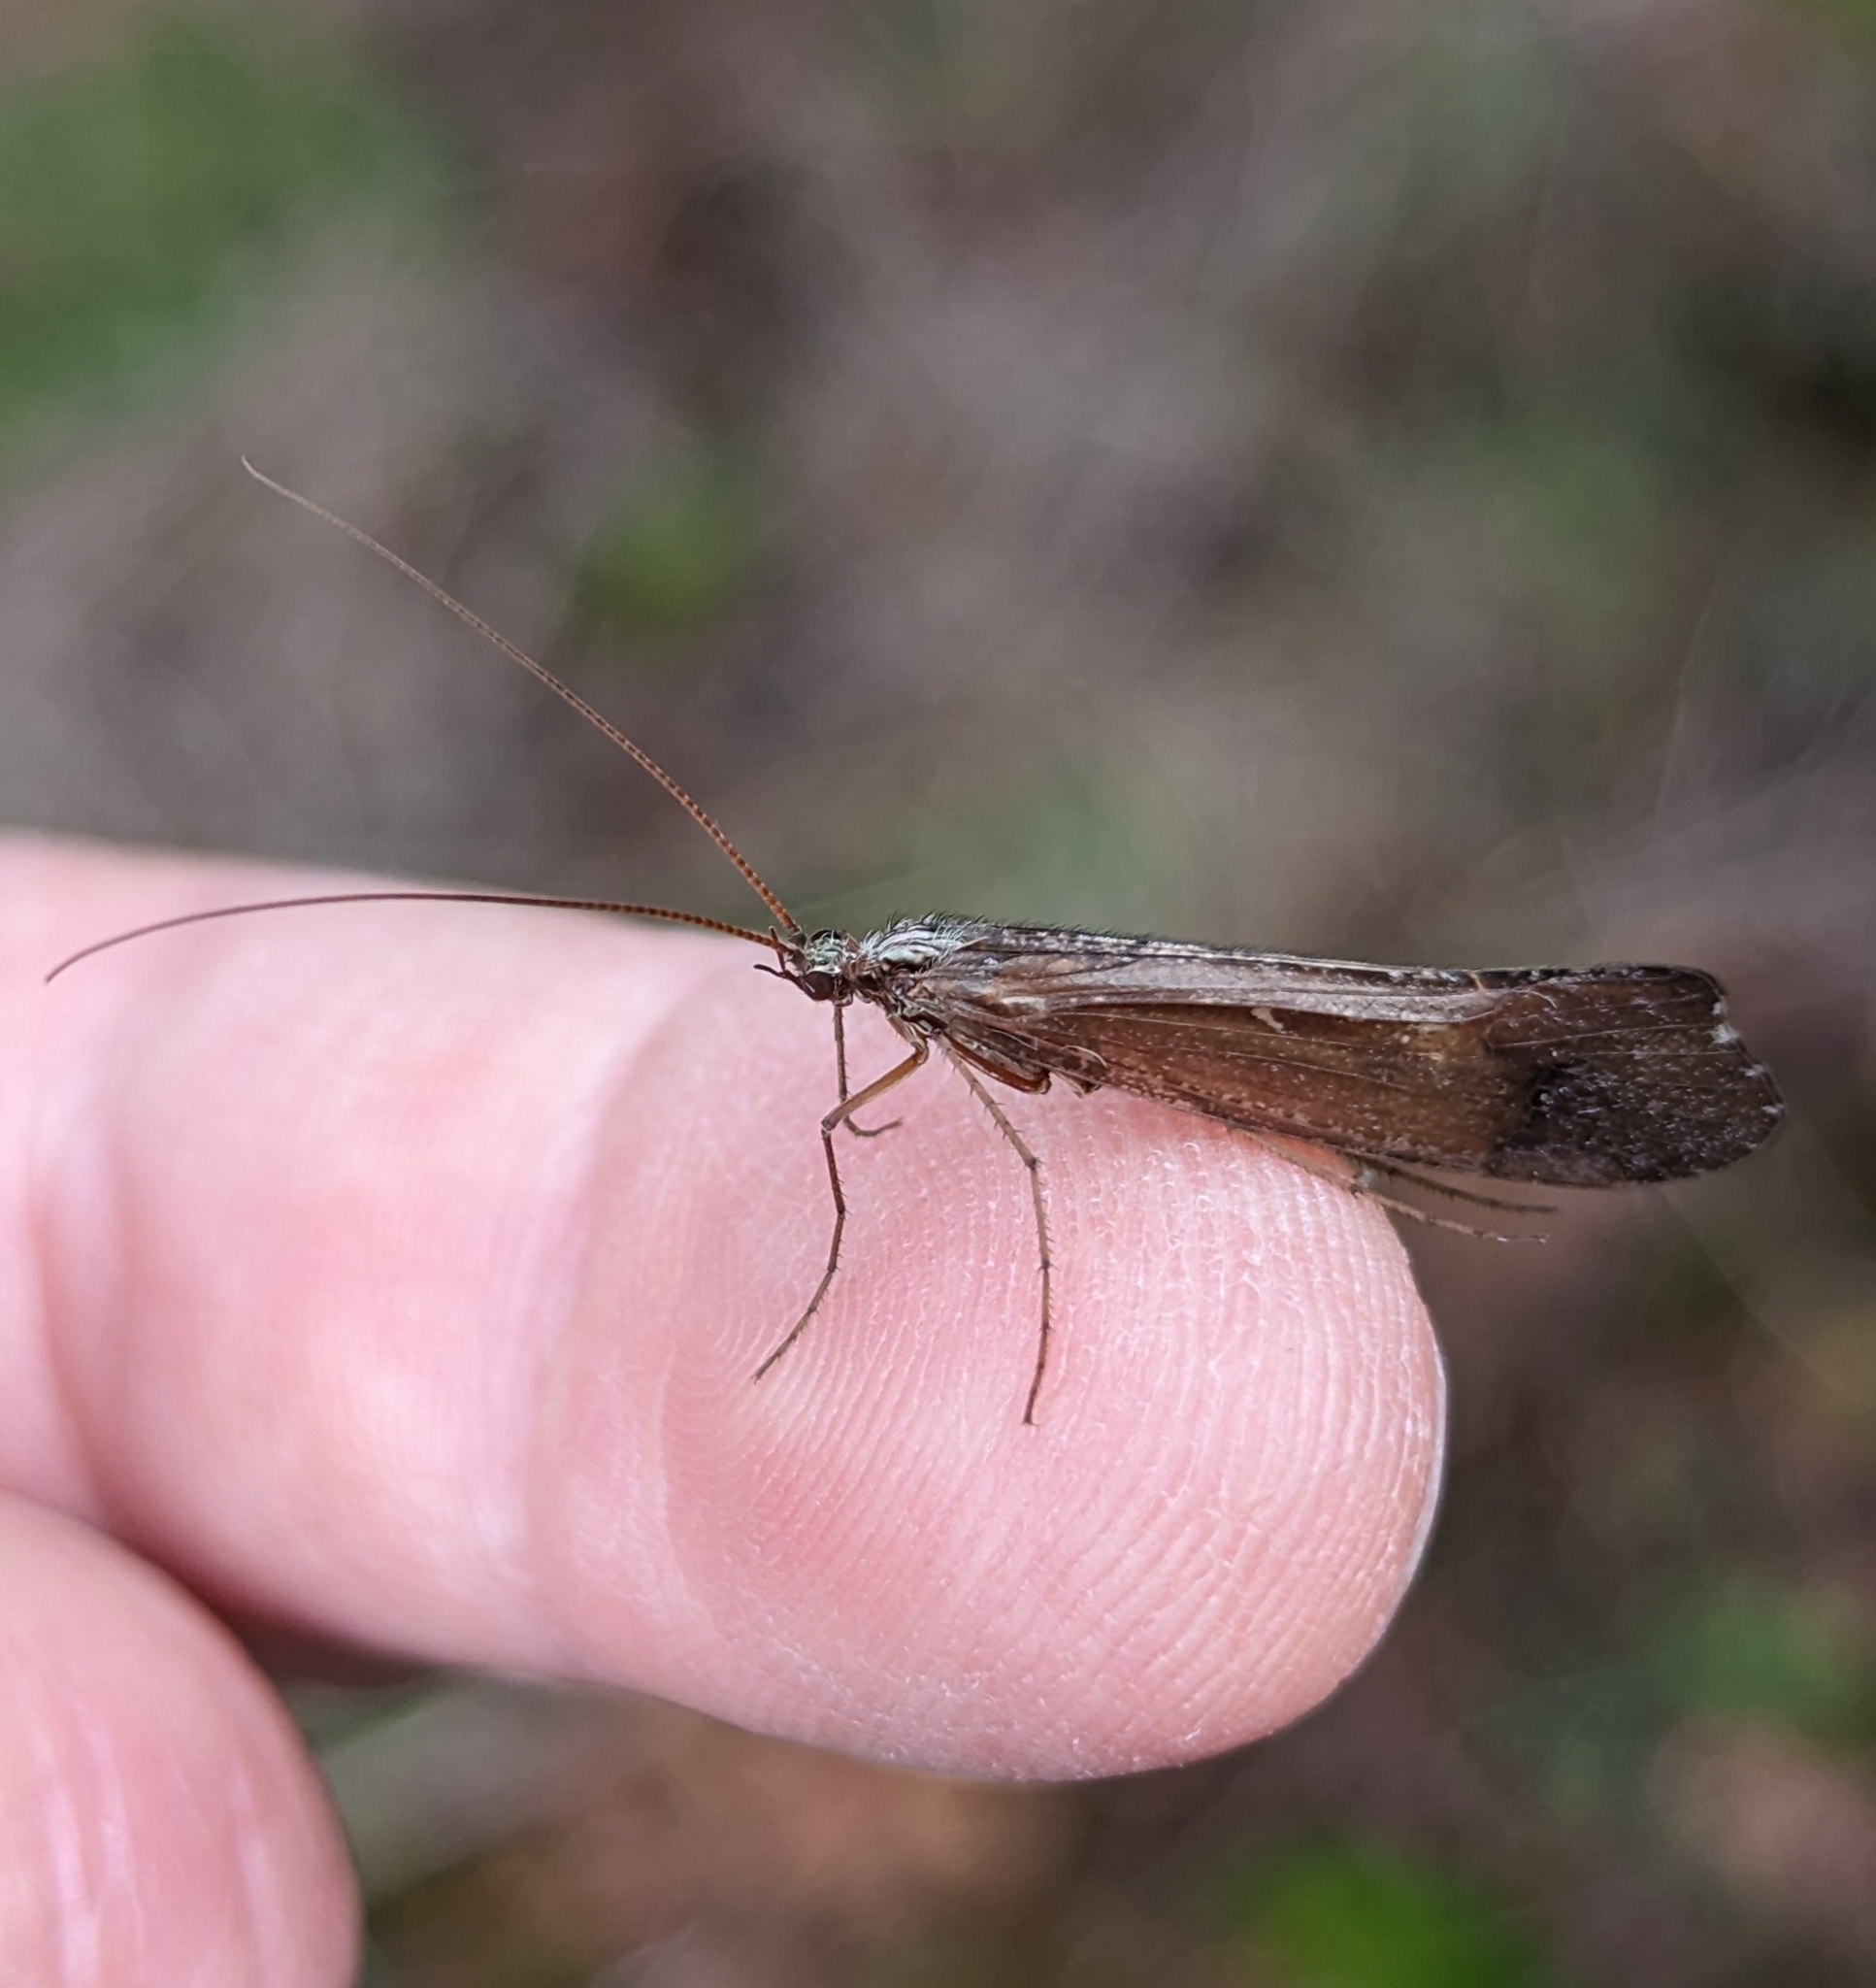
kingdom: Animalia
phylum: Arthropoda
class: Insecta
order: Trichoptera
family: Limnephilidae
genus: Glyphopsyche
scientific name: Glyphopsyche irrorata
